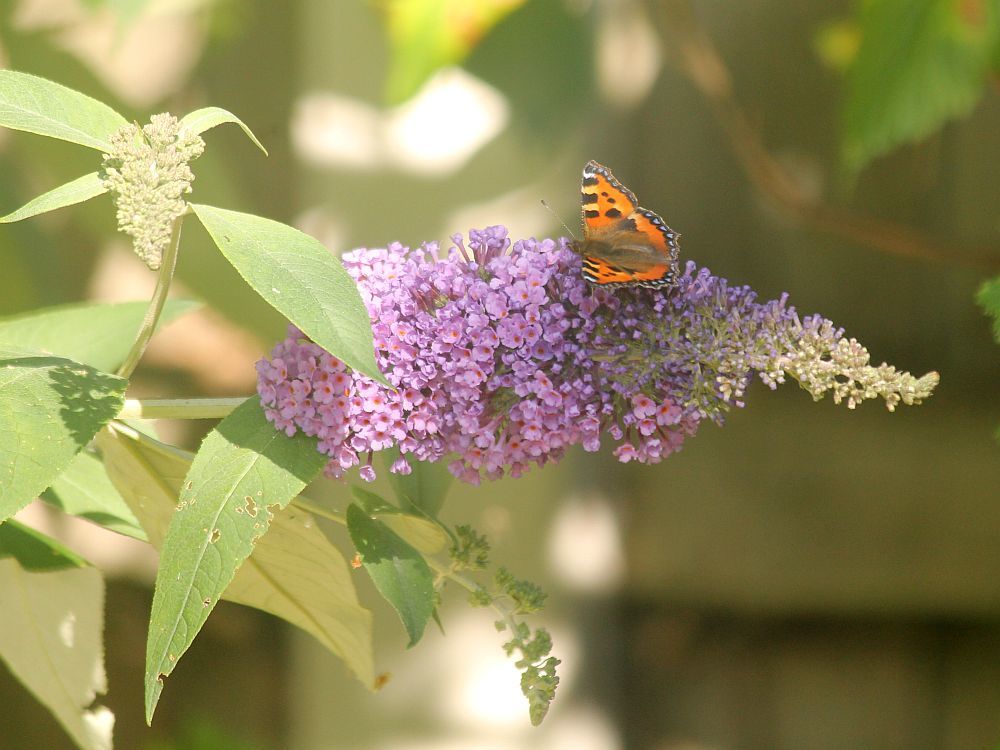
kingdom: Plantae
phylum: Tracheophyta
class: Magnoliopsida
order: Lamiales
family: Scrophulariaceae
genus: Buddleja
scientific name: Buddleja davidii
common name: Butterfly-bush
